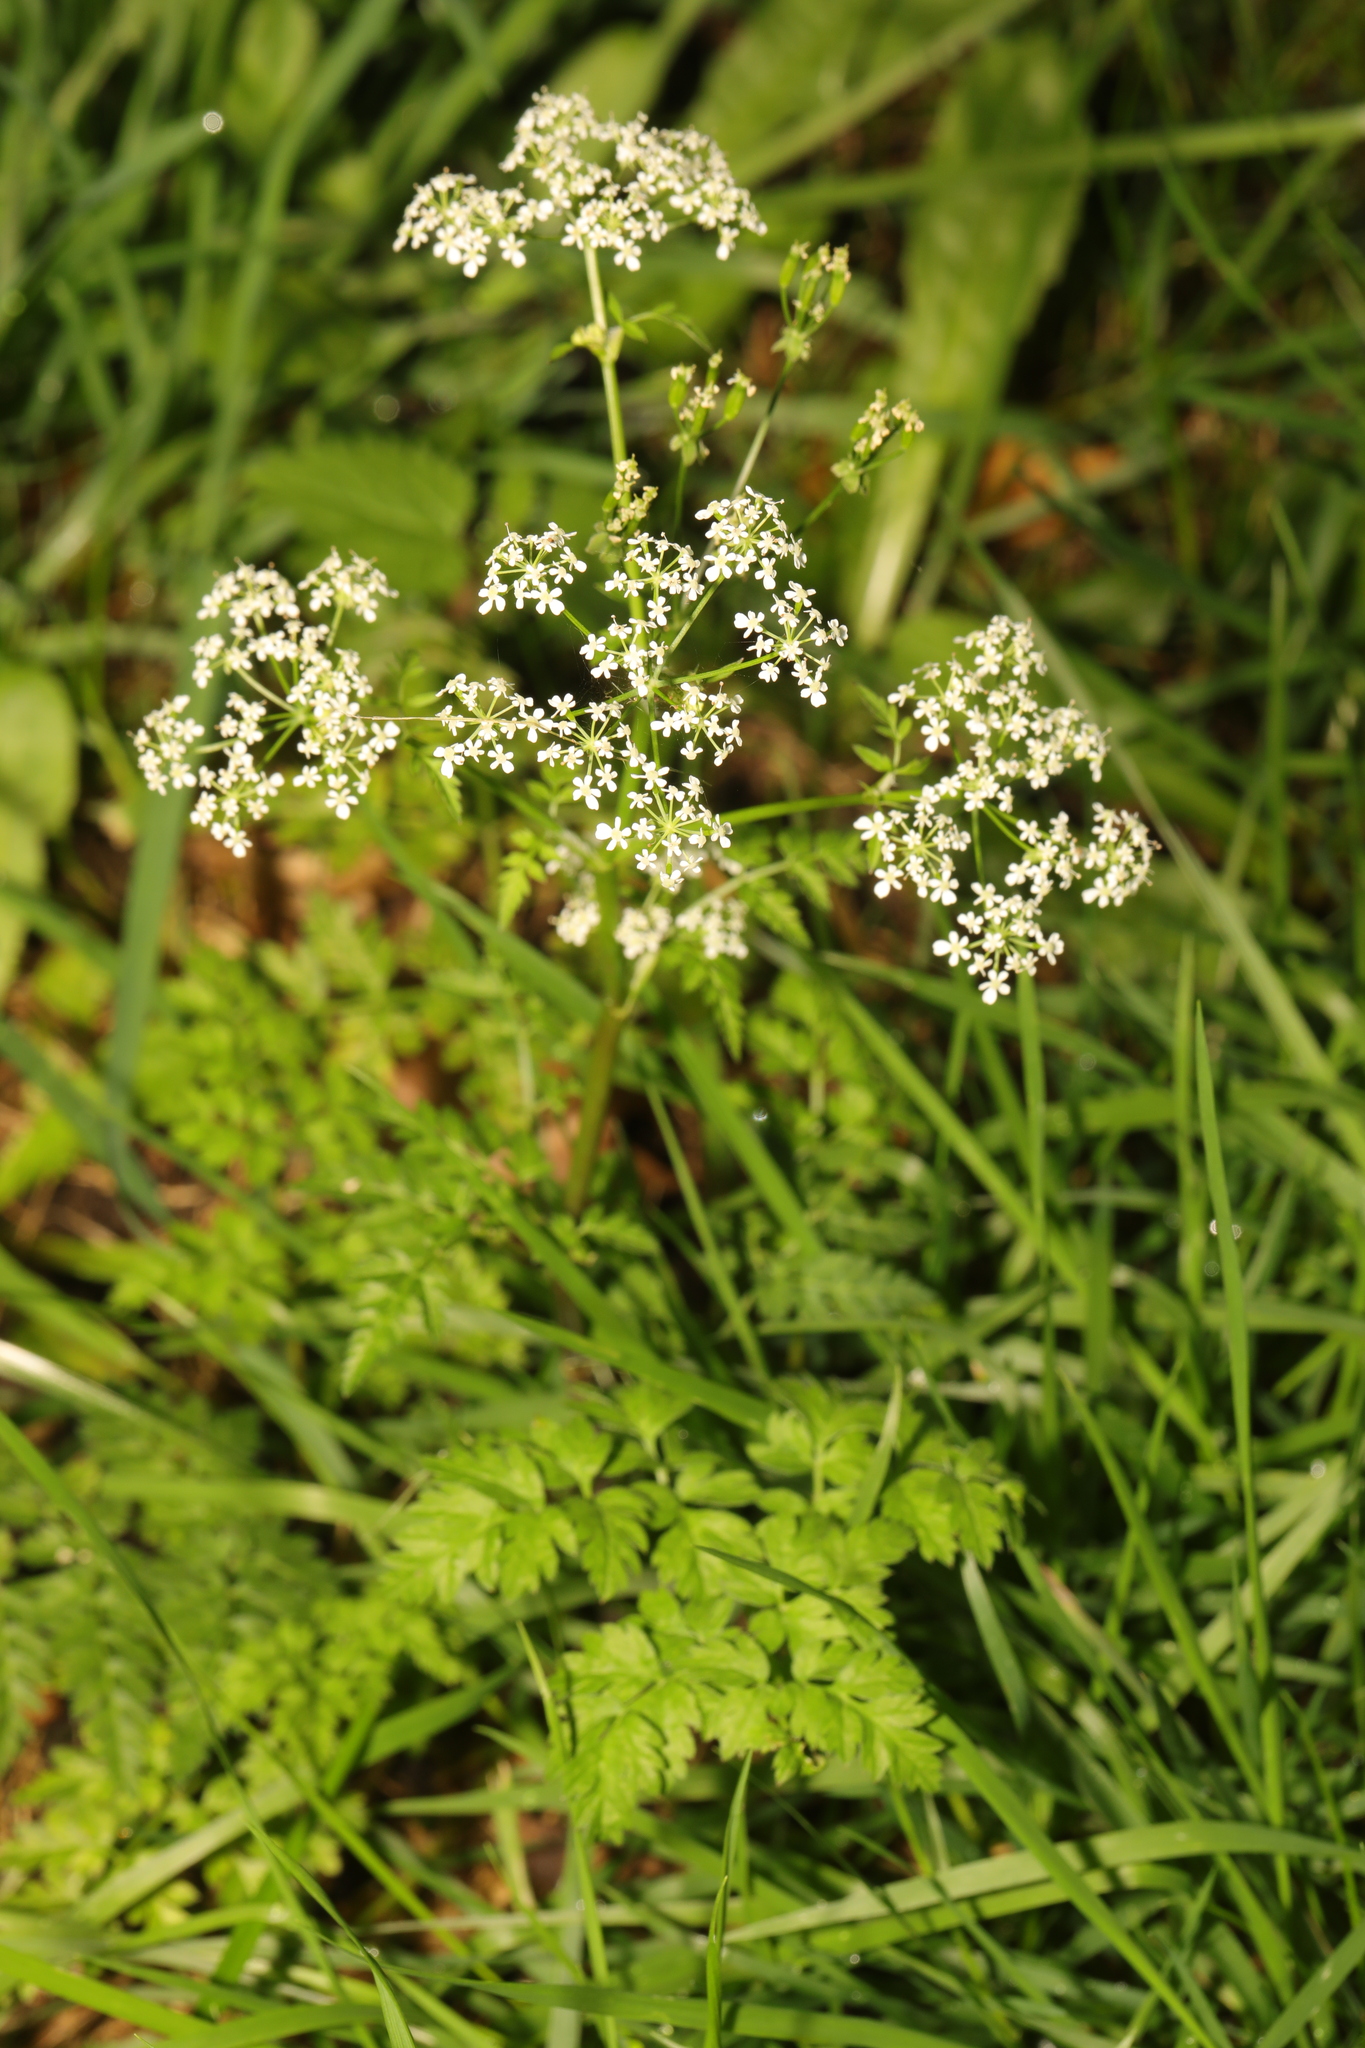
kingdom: Plantae
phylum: Tracheophyta
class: Magnoliopsida
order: Apiales
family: Apiaceae
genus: Anthriscus
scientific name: Anthriscus sylvestris
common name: Cow parsley
